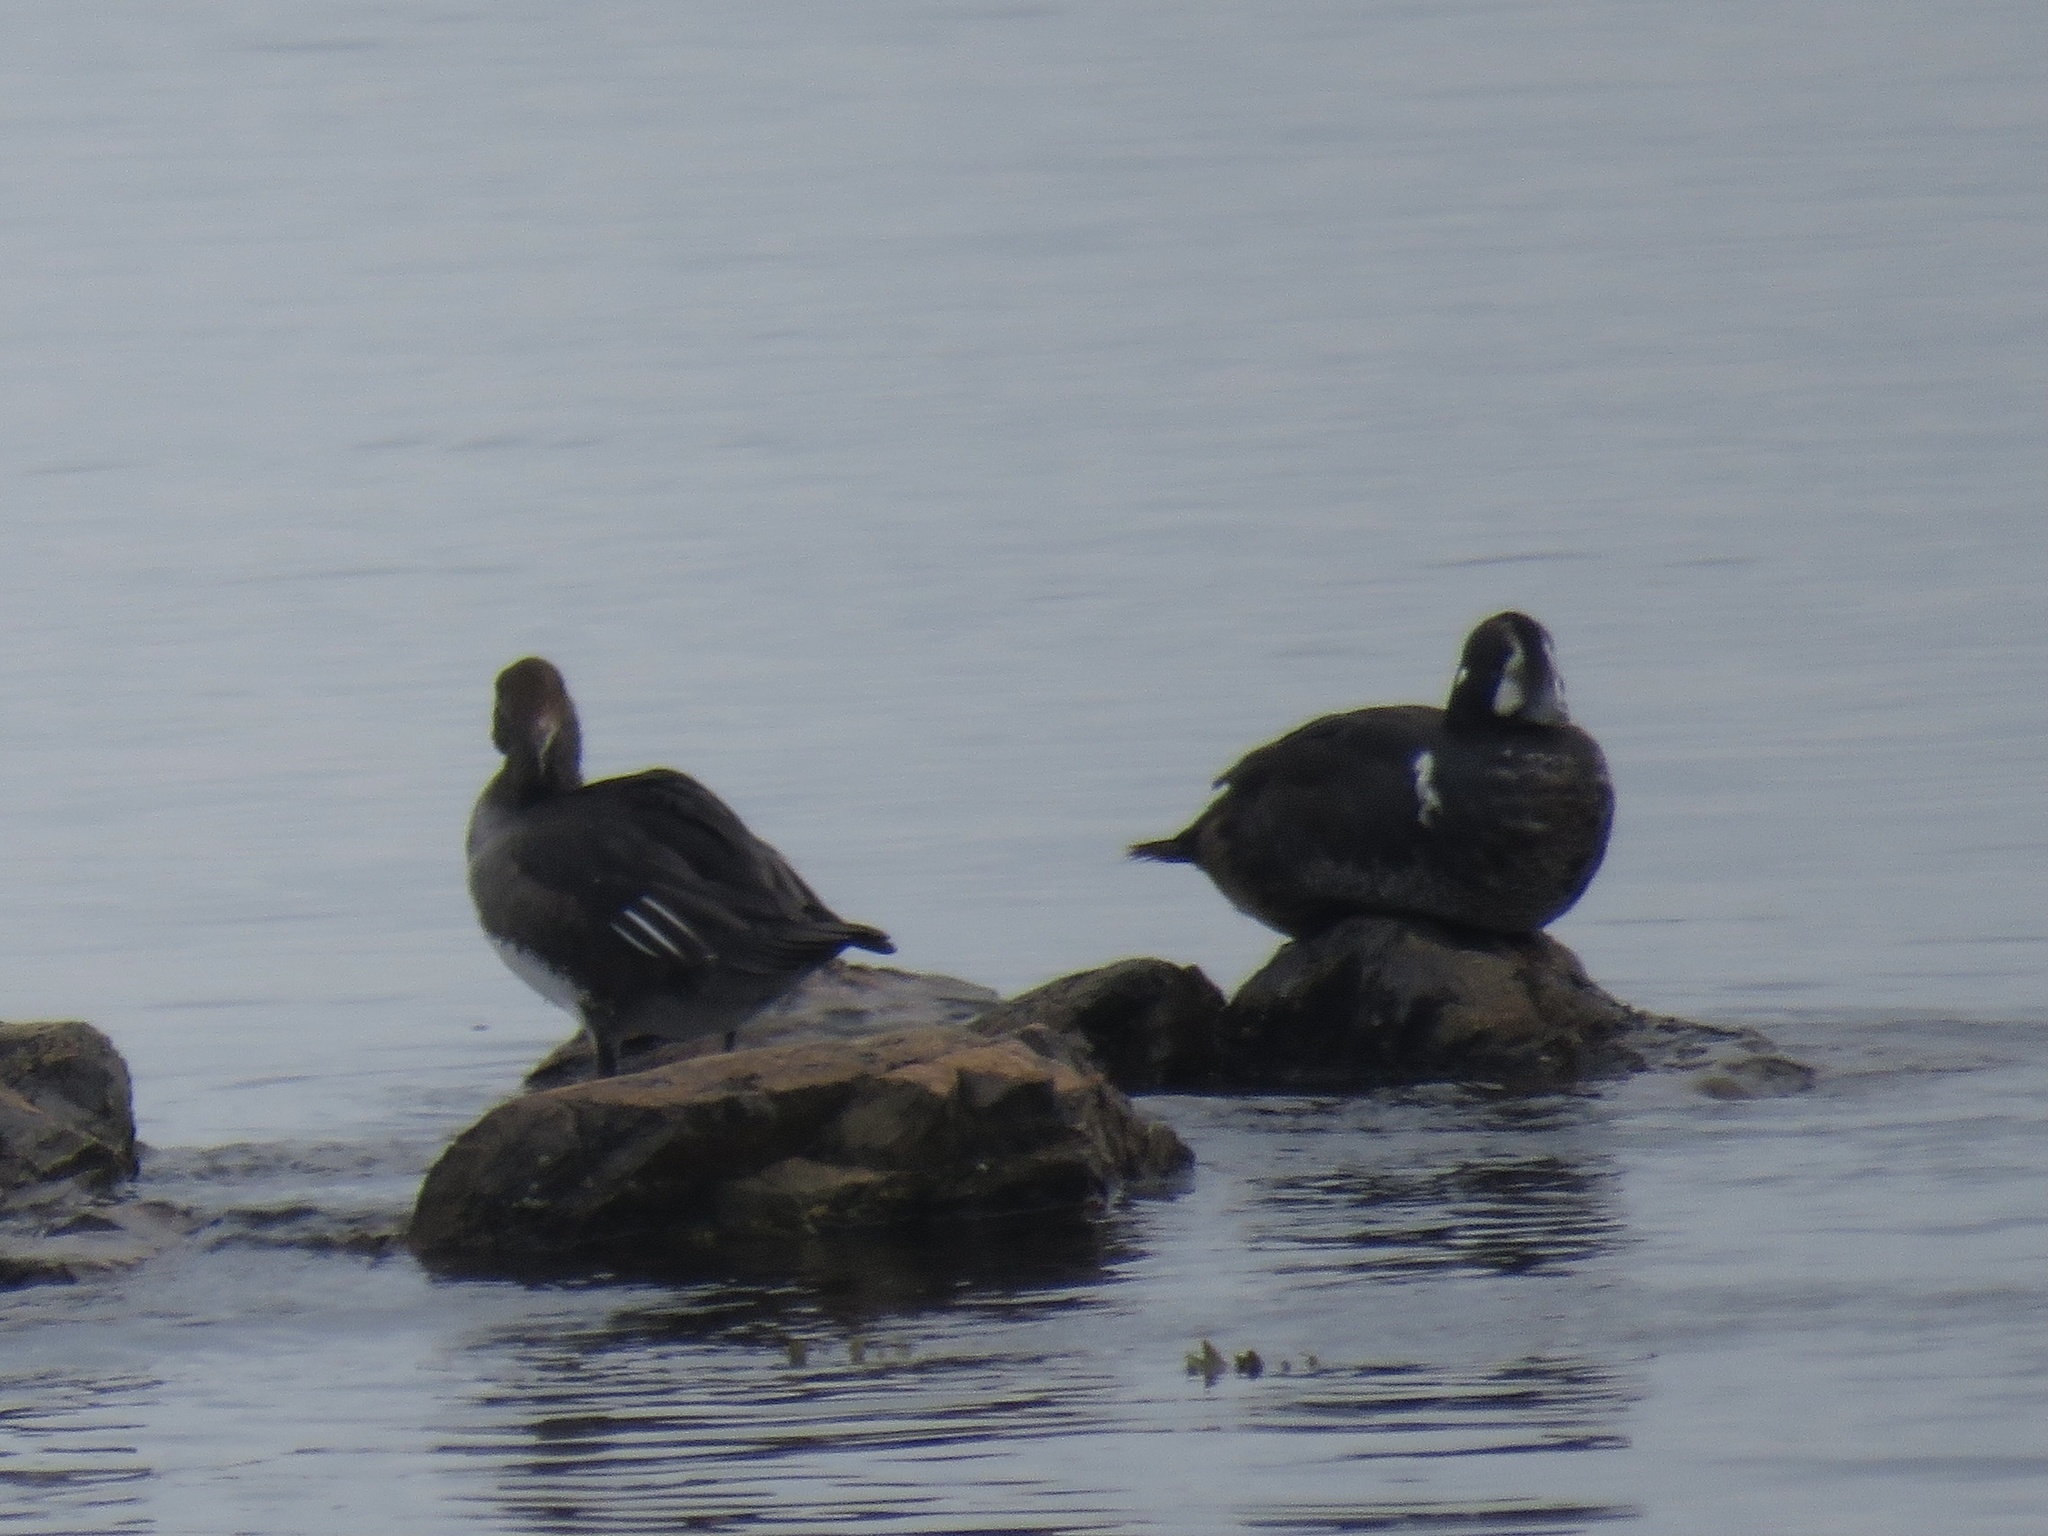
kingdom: Animalia
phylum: Chordata
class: Aves
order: Anseriformes
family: Anatidae
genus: Histrionicus
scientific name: Histrionicus histrionicus
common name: Harlequin duck
